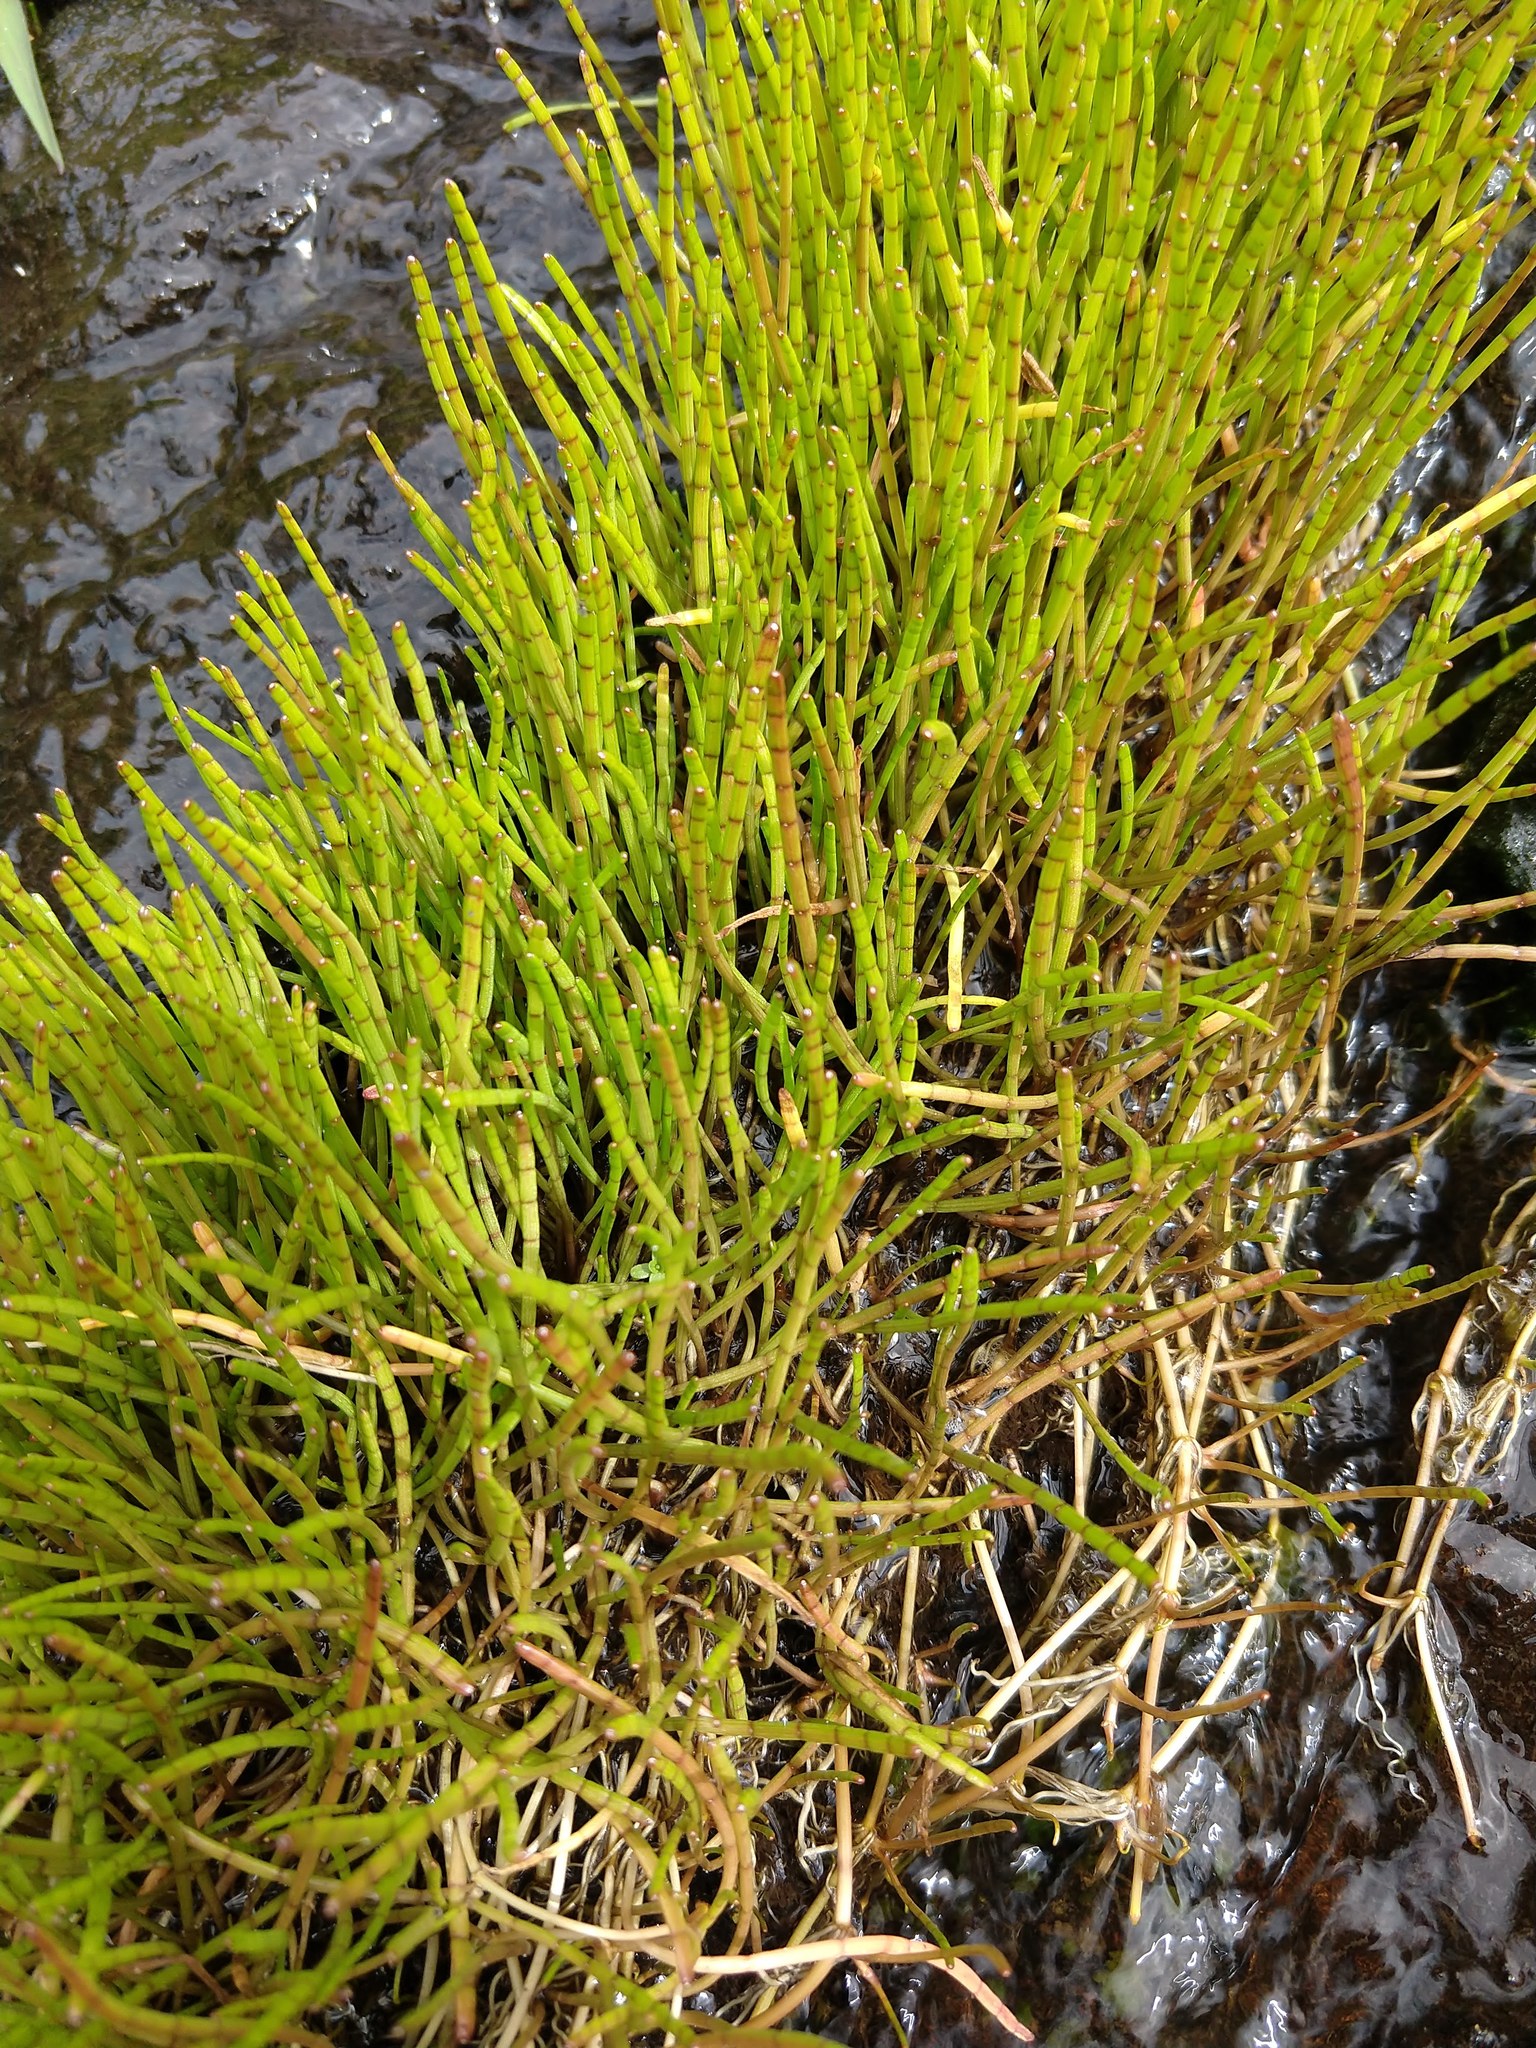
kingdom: Plantae
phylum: Tracheophyta
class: Magnoliopsida
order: Apiales
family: Apiaceae
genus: Lilaeopsis
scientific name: Lilaeopsis novae-zelandiae
